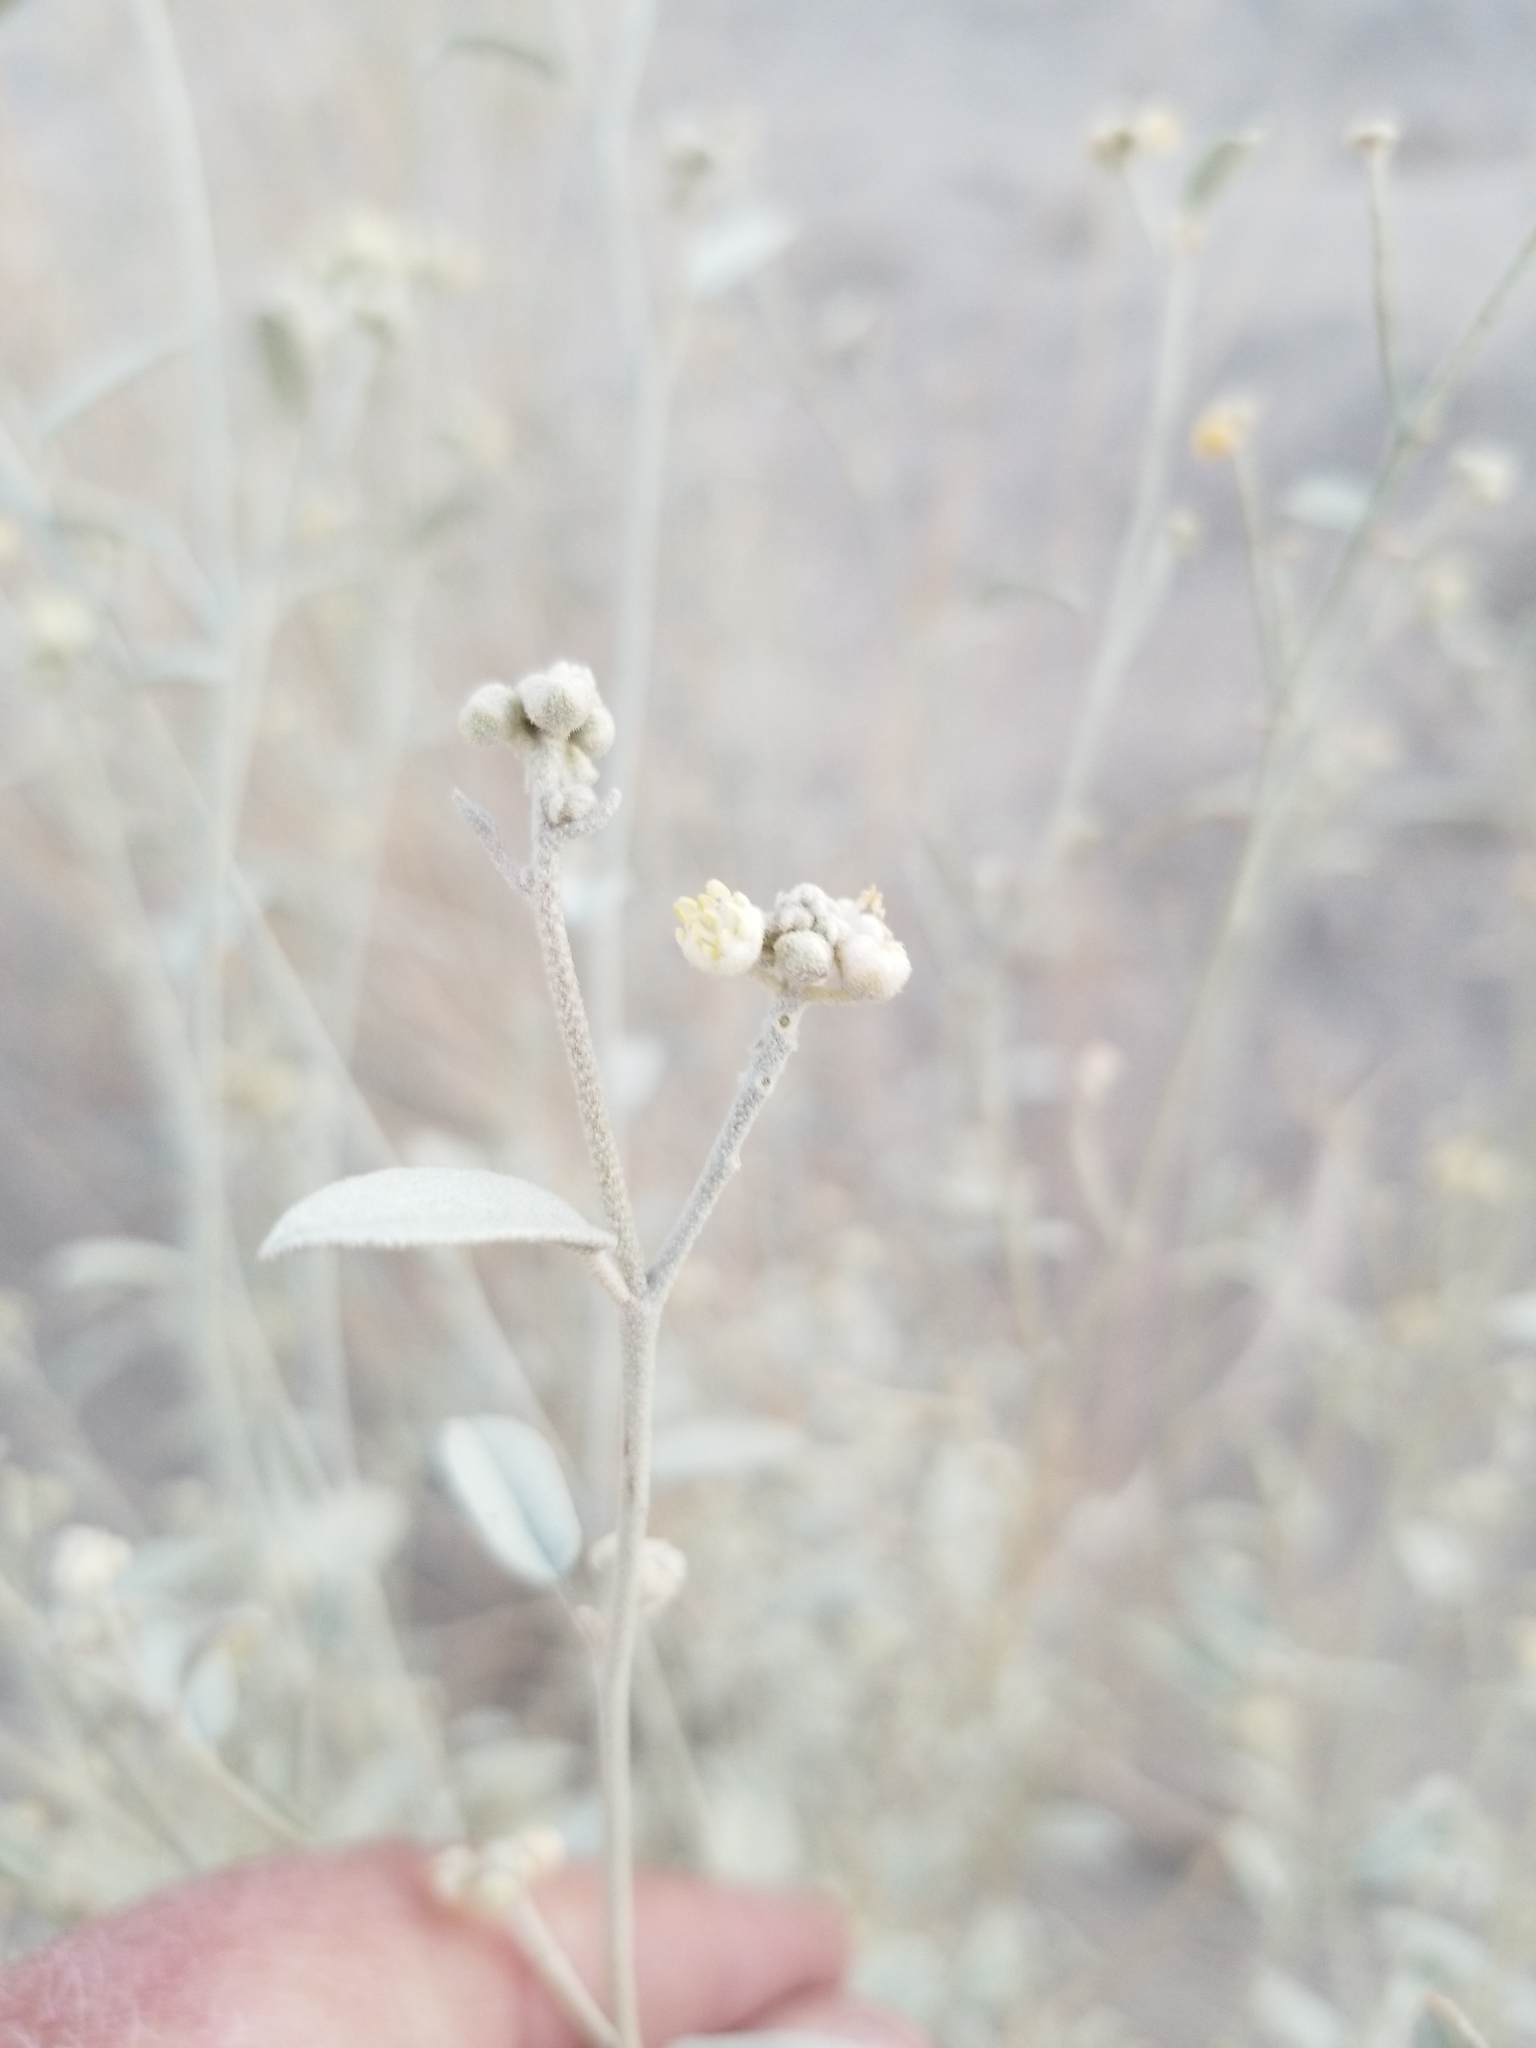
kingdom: Plantae
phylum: Tracheophyta
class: Magnoliopsida
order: Malpighiales
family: Euphorbiaceae
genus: Croton
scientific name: Croton californicus
